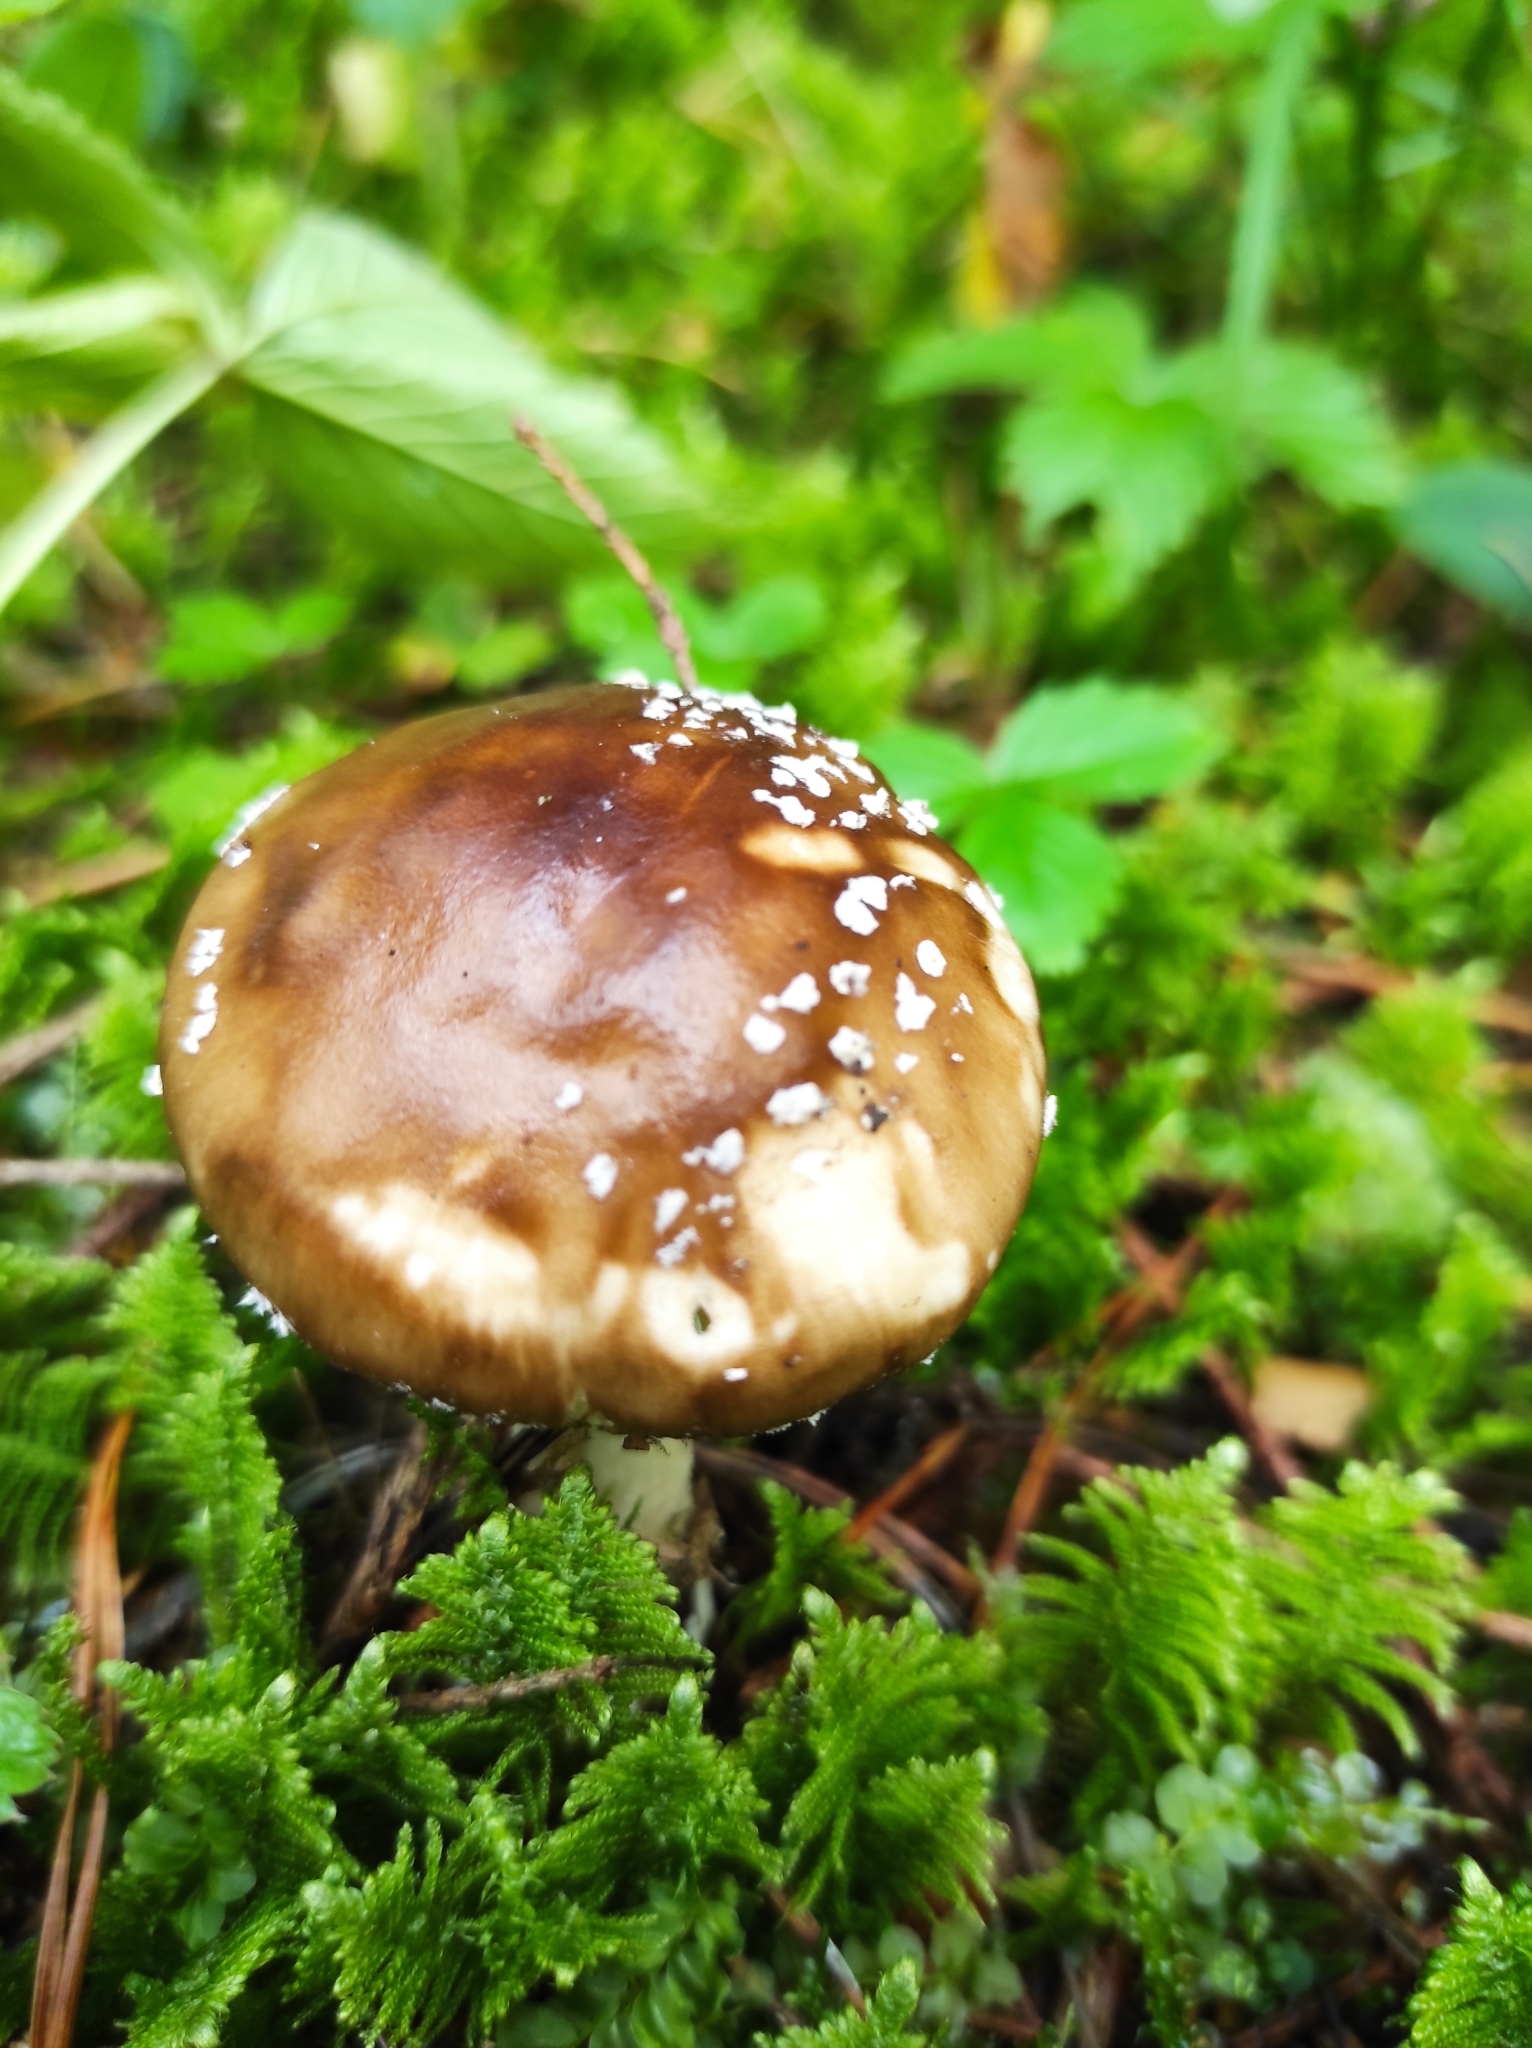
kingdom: Fungi
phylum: Basidiomycota
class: Agaricomycetes
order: Agaricales
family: Amanitaceae
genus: Amanita
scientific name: Amanita pantherina
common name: Panthercap
